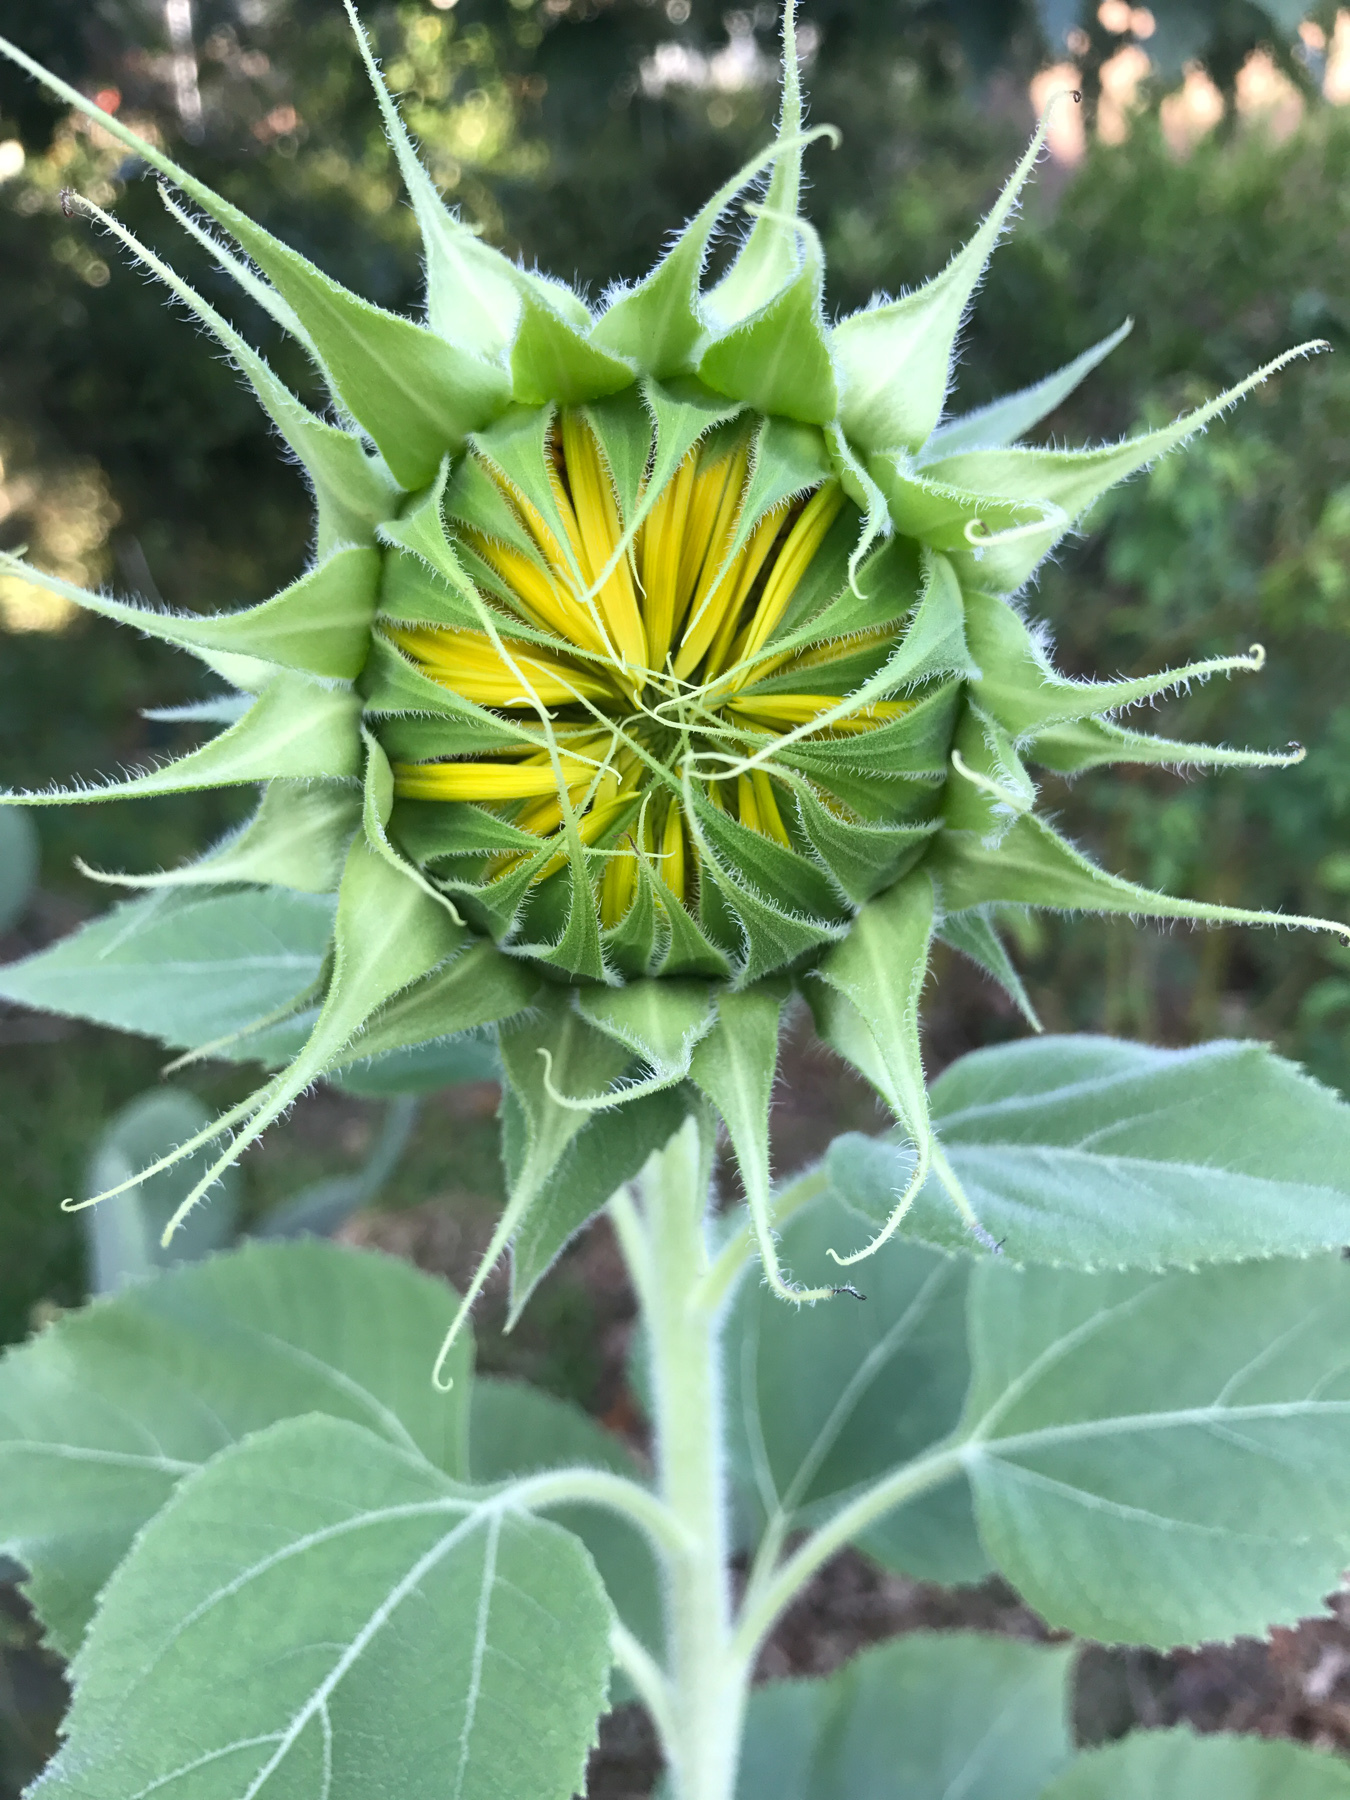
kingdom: Plantae
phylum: Tracheophyta
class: Magnoliopsida
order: Asterales
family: Asteraceae
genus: Helianthus
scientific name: Helianthus annuus
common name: Sunflower
